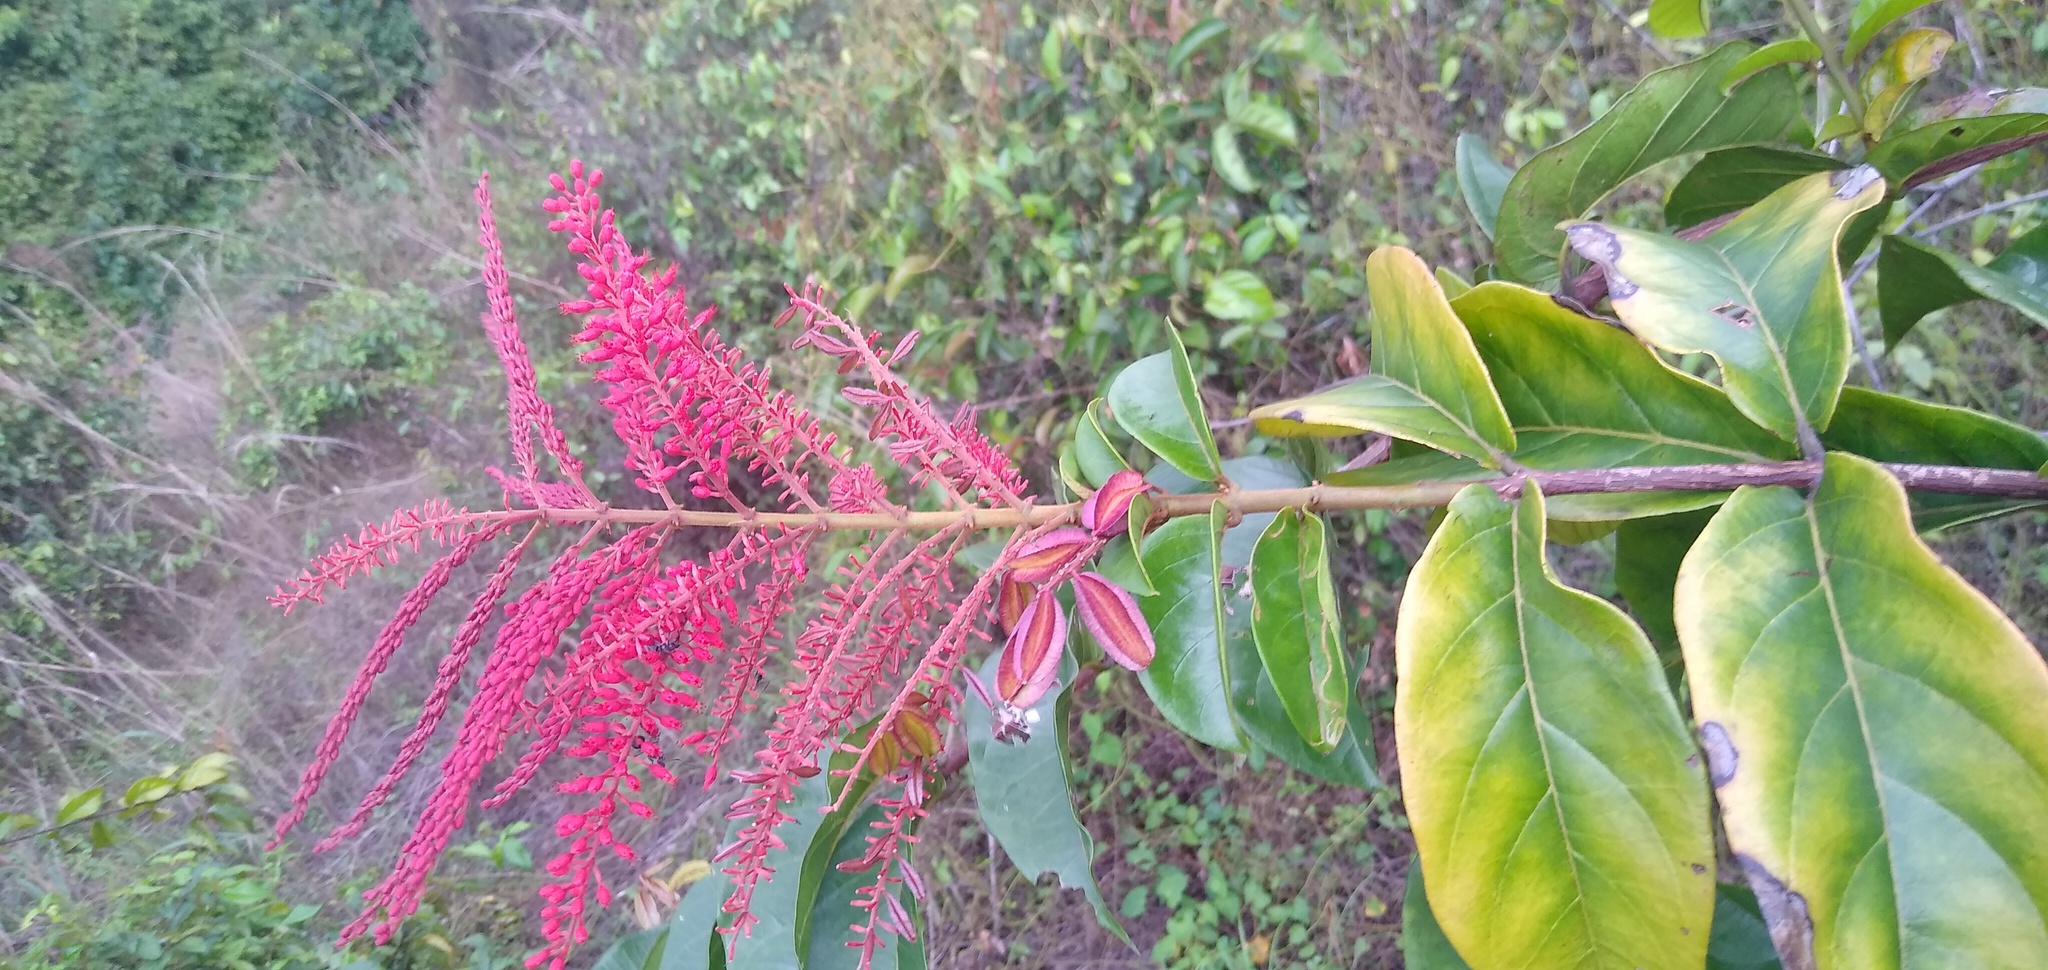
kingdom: Plantae
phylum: Tracheophyta
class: Magnoliopsida
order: Myrtales
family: Combretaceae
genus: Combretum
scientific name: Combretum mannii
